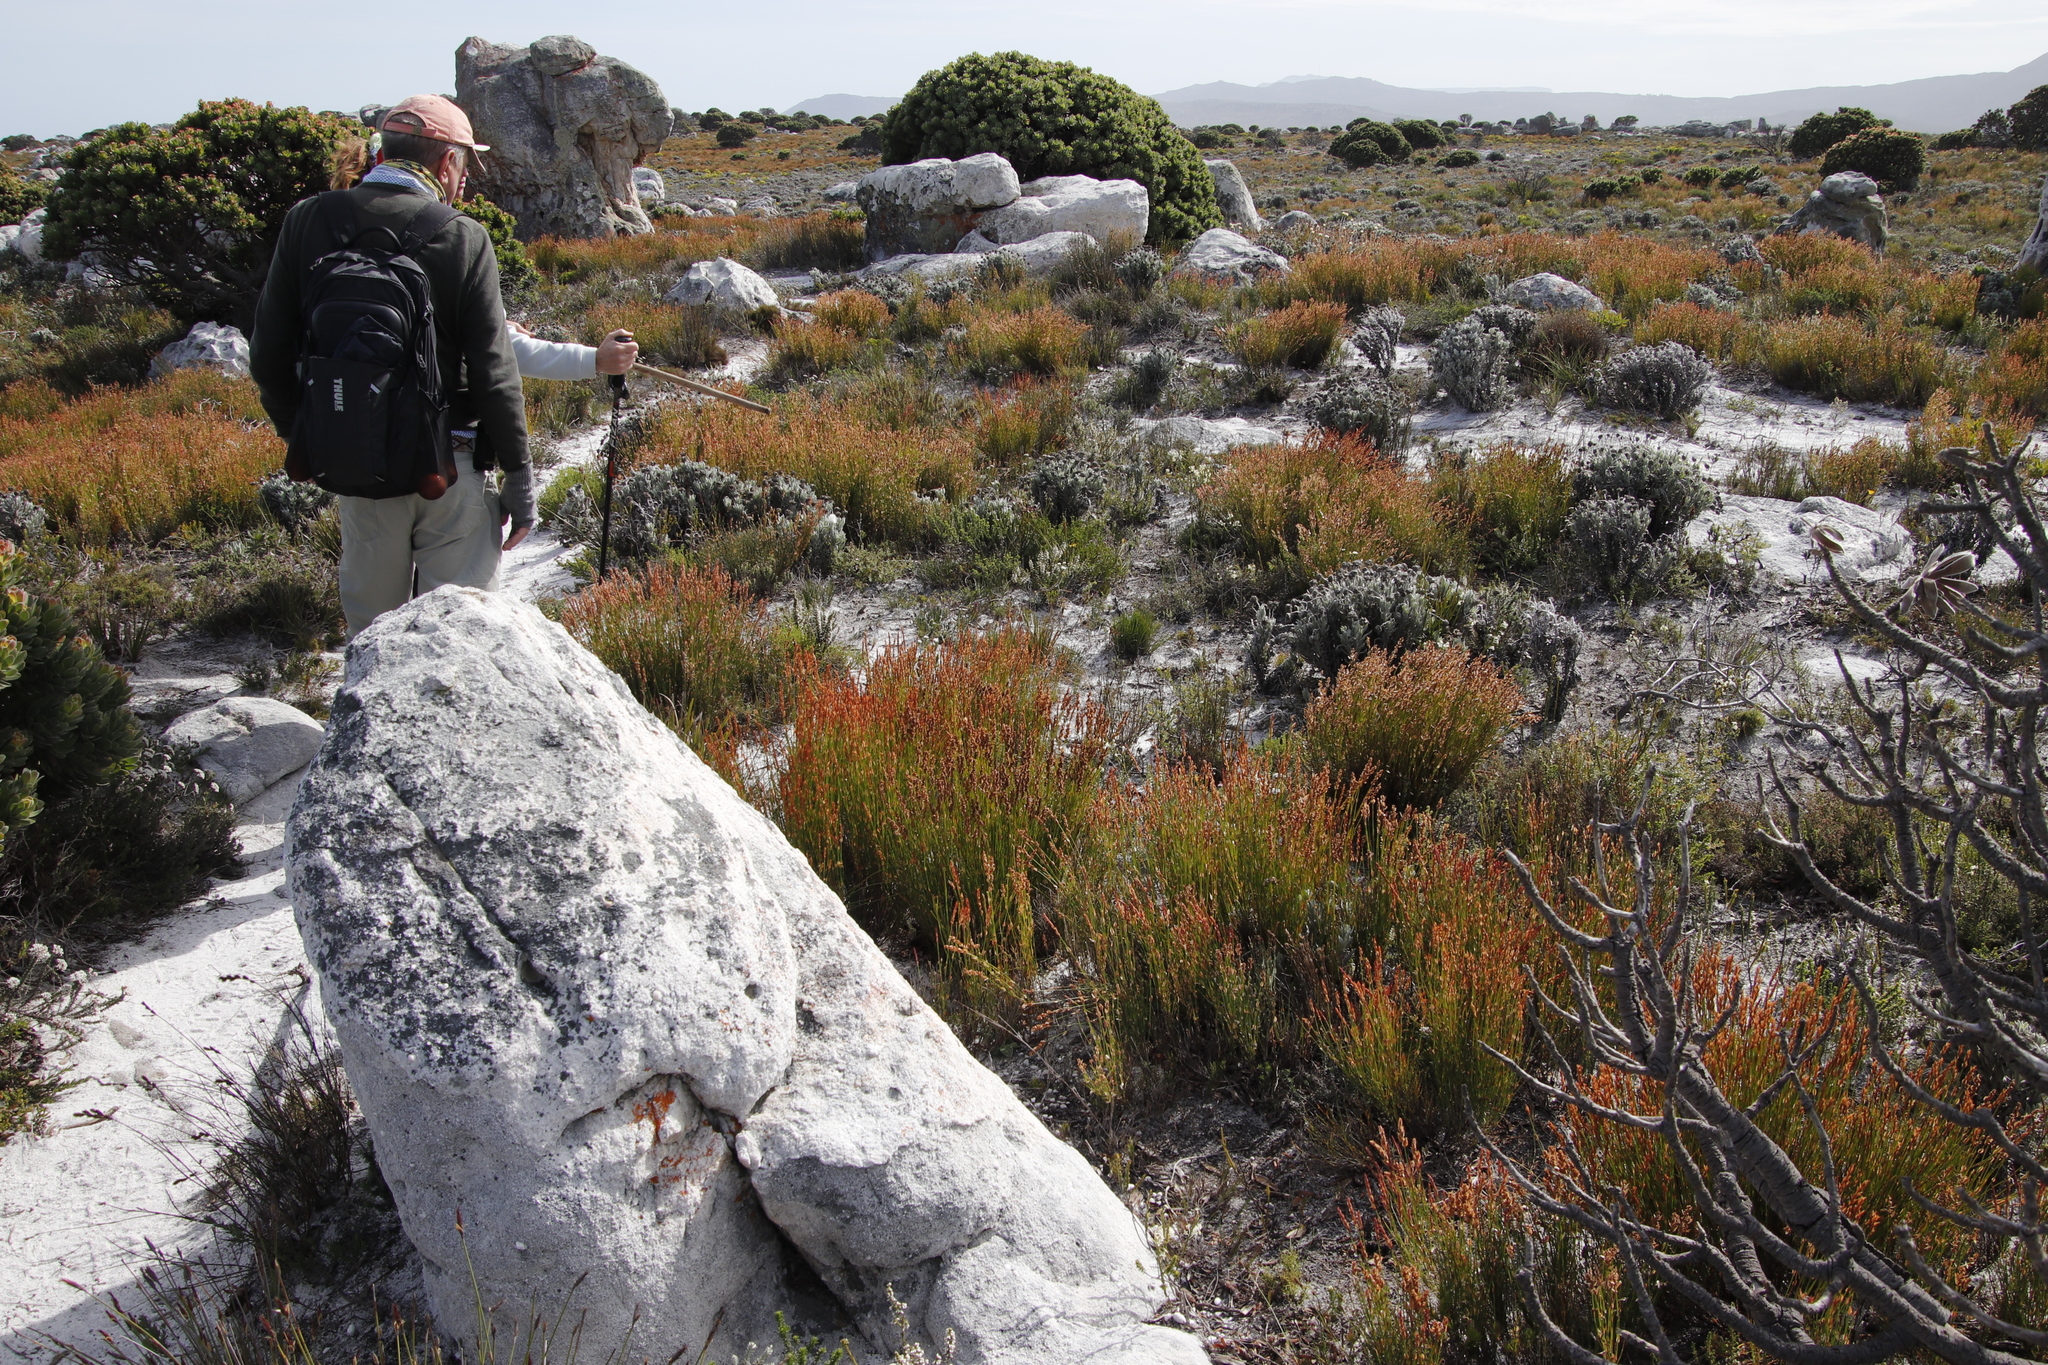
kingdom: Plantae
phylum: Tracheophyta
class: Magnoliopsida
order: Asterales
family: Asteraceae
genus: Syncarpha
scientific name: Syncarpha vestita
